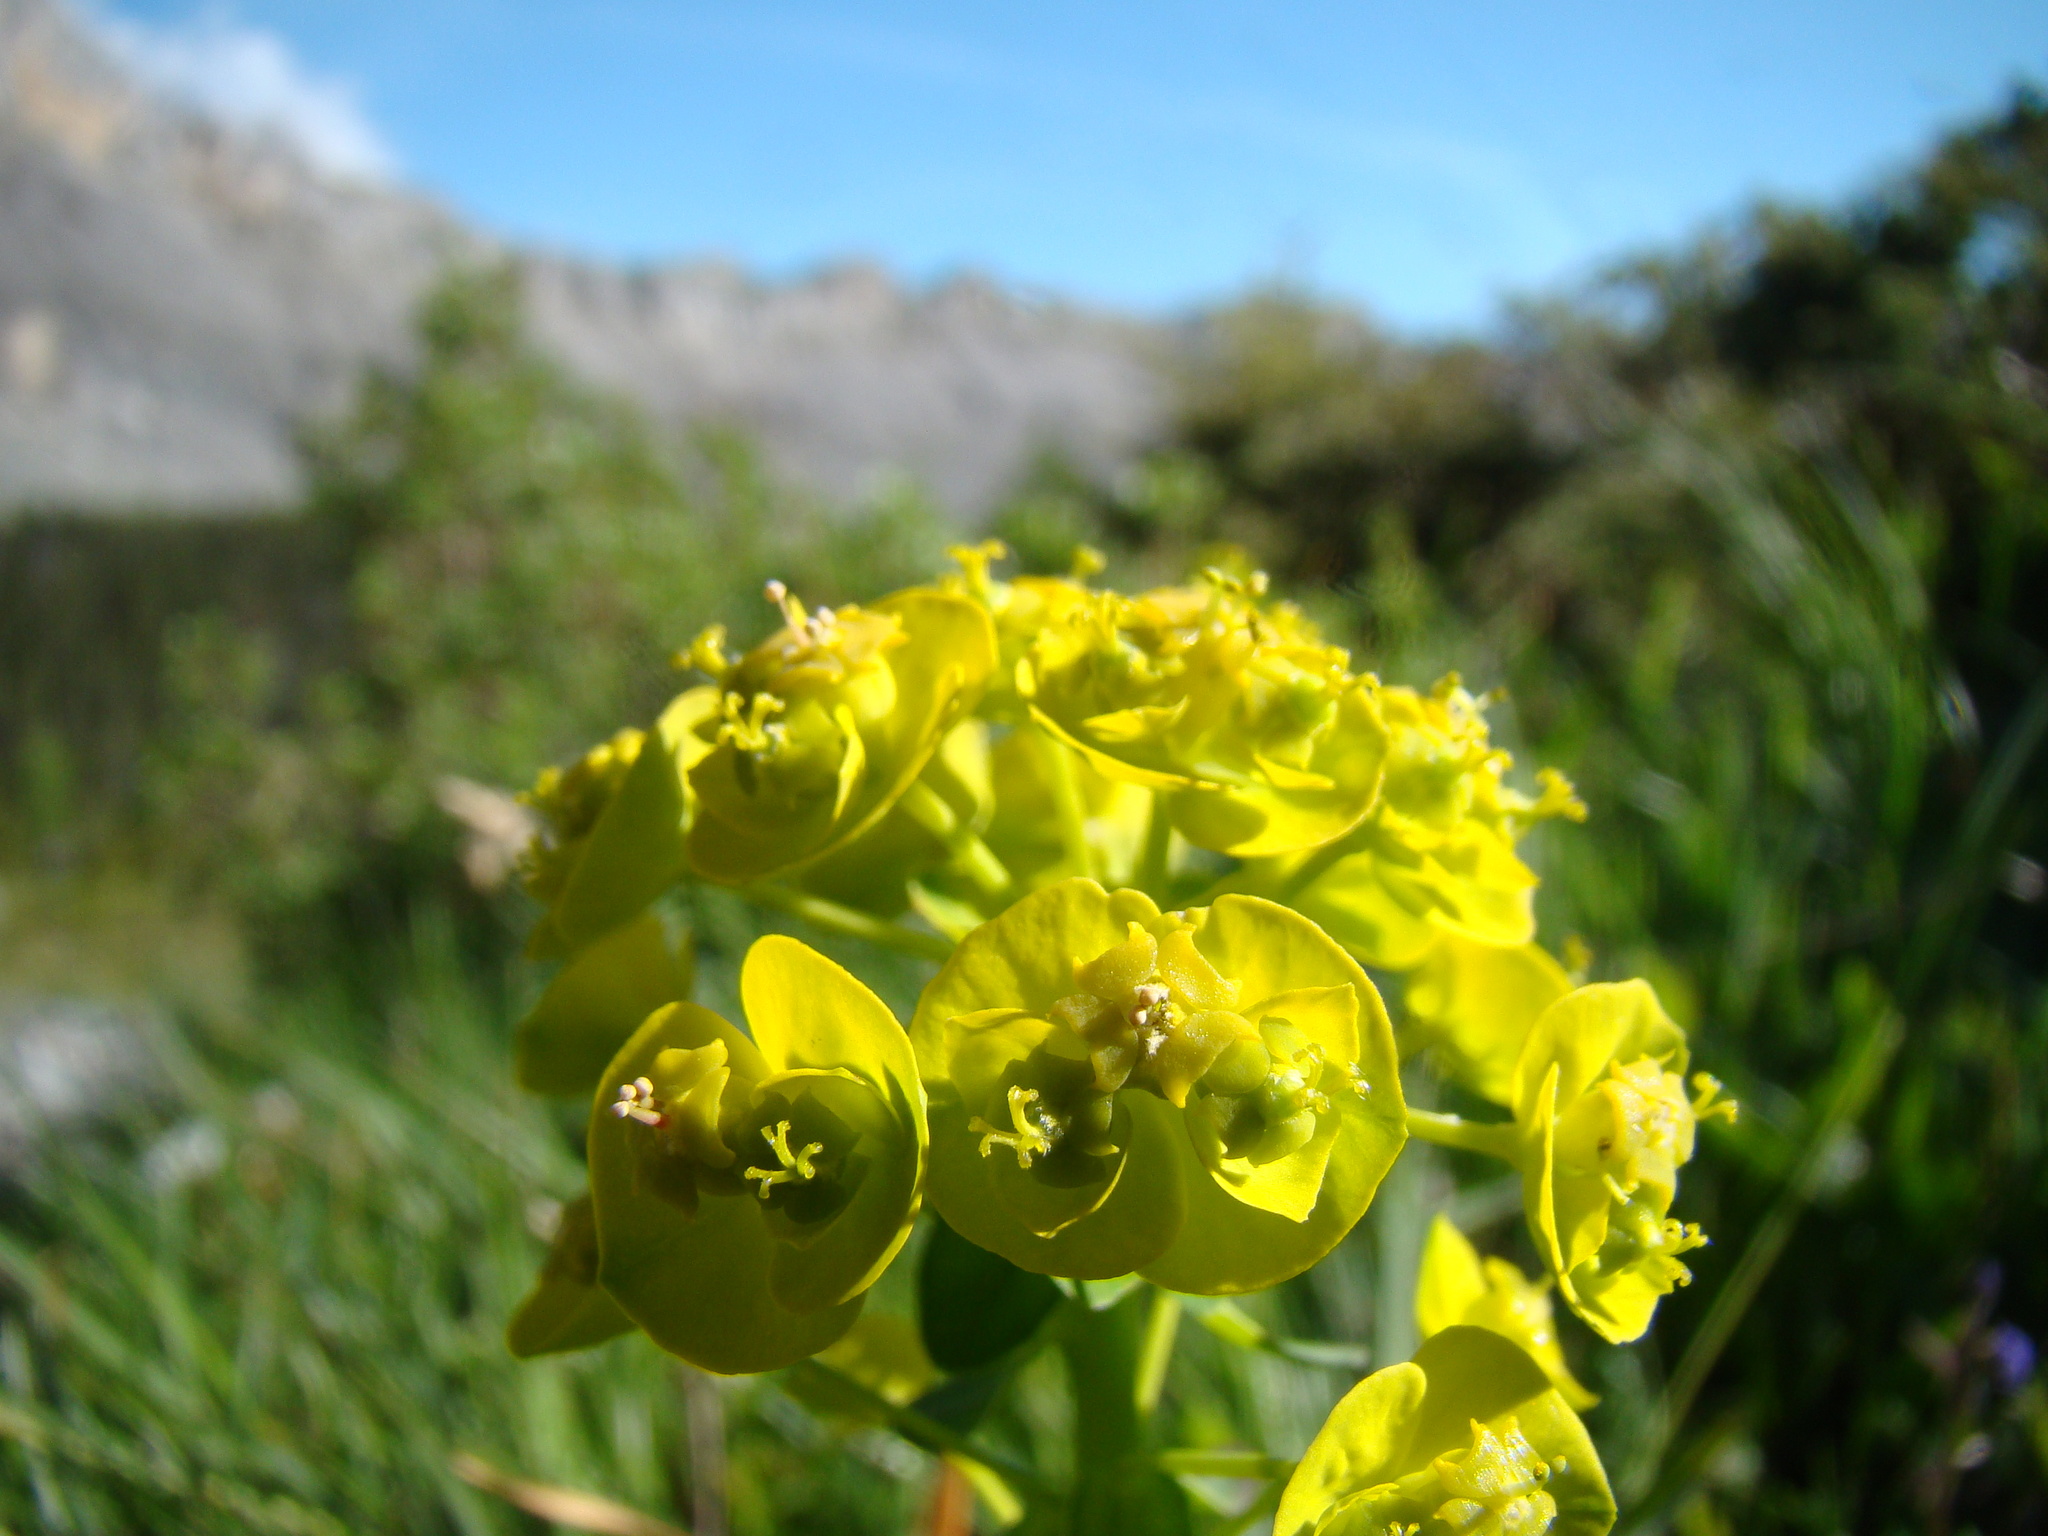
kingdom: Plantae
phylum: Tracheophyta
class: Magnoliopsida
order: Malpighiales
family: Euphorbiaceae
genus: Euphorbia
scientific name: Euphorbia cyparissias
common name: Cypress spurge
